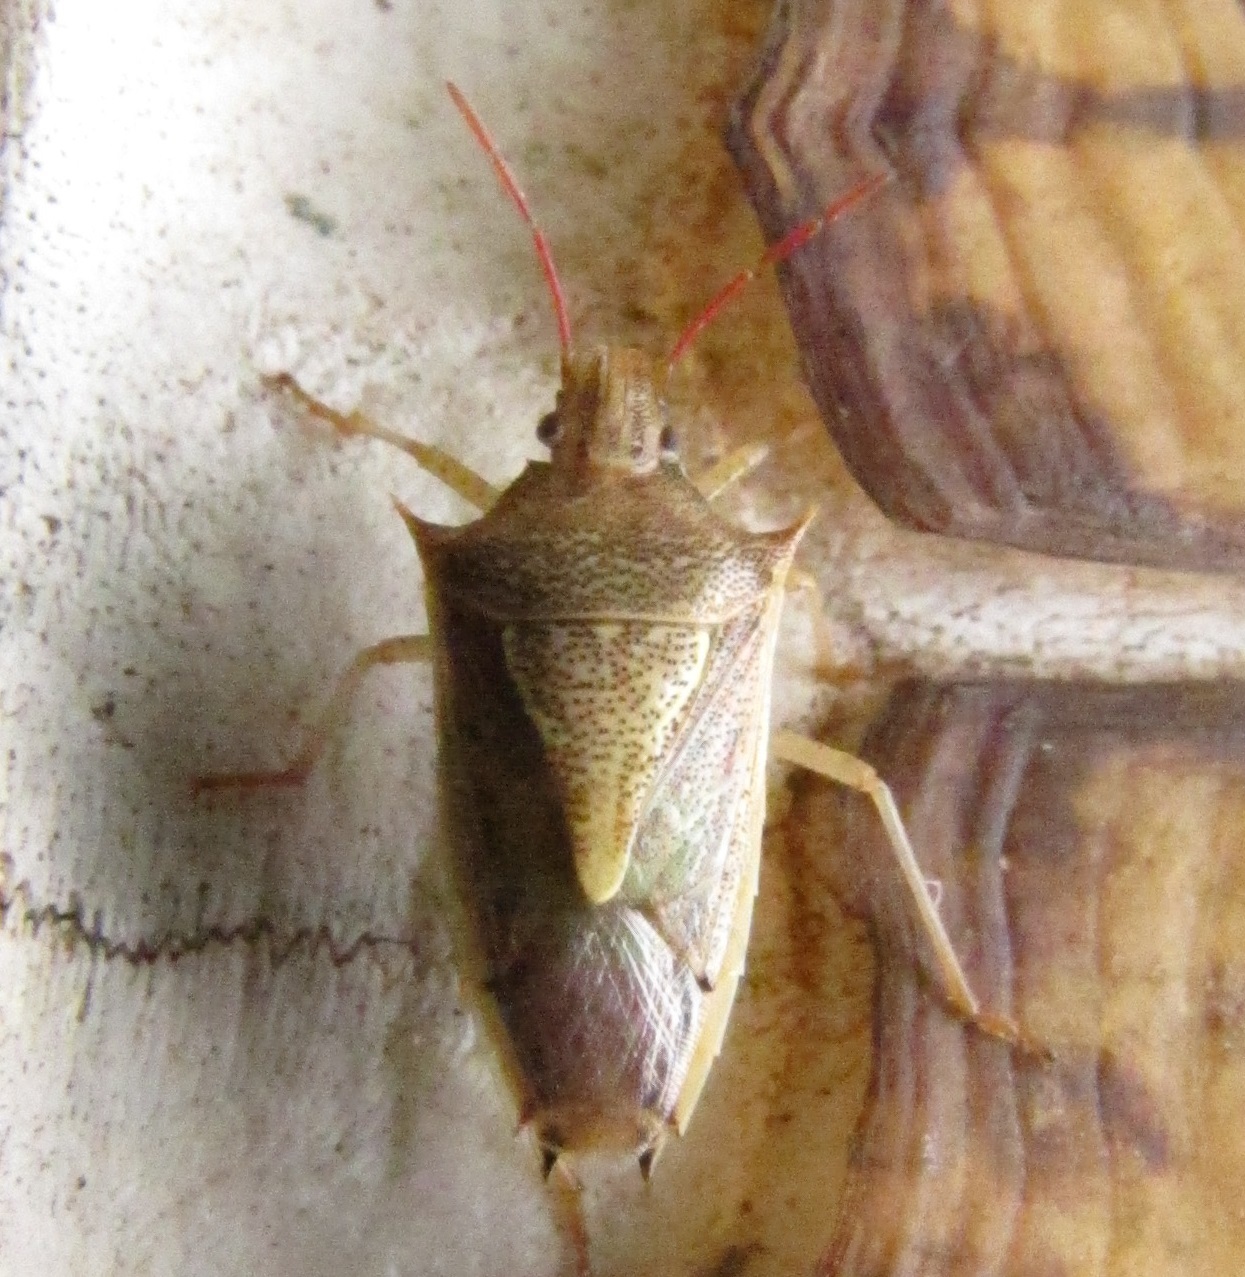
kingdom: Animalia
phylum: Arthropoda
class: Insecta
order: Hemiptera
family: Pentatomidae
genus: Oebalus
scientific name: Oebalus pugnax
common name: Rice stink bug
